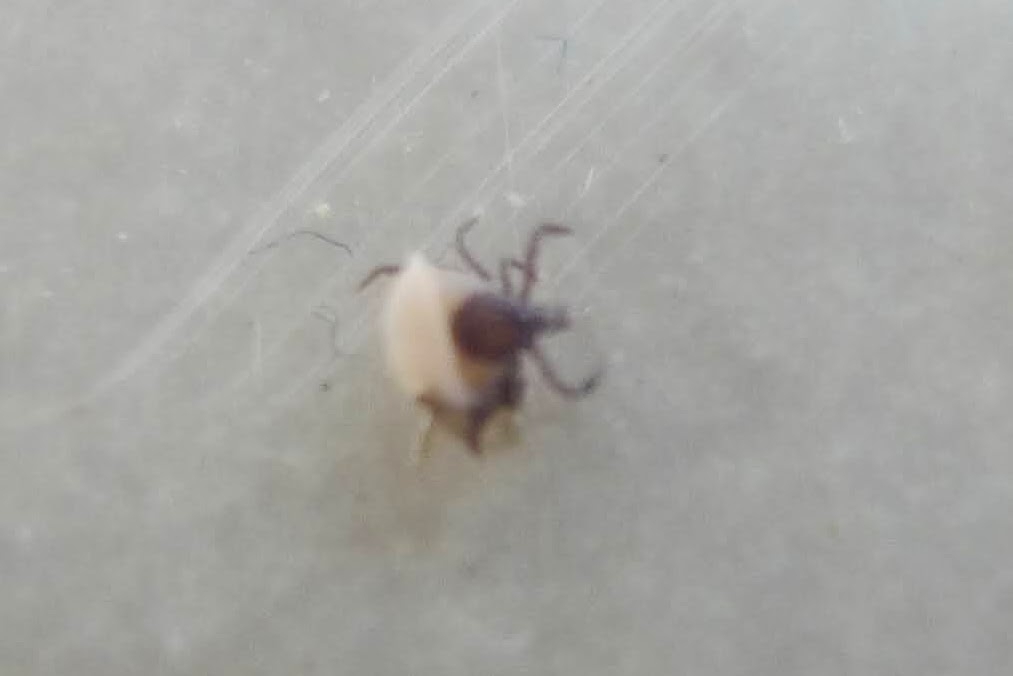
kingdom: Animalia
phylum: Arthropoda
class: Arachnida
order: Ixodida
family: Ixodidae
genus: Ixodes
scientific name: Ixodes ricinus
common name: Castor bean tick
